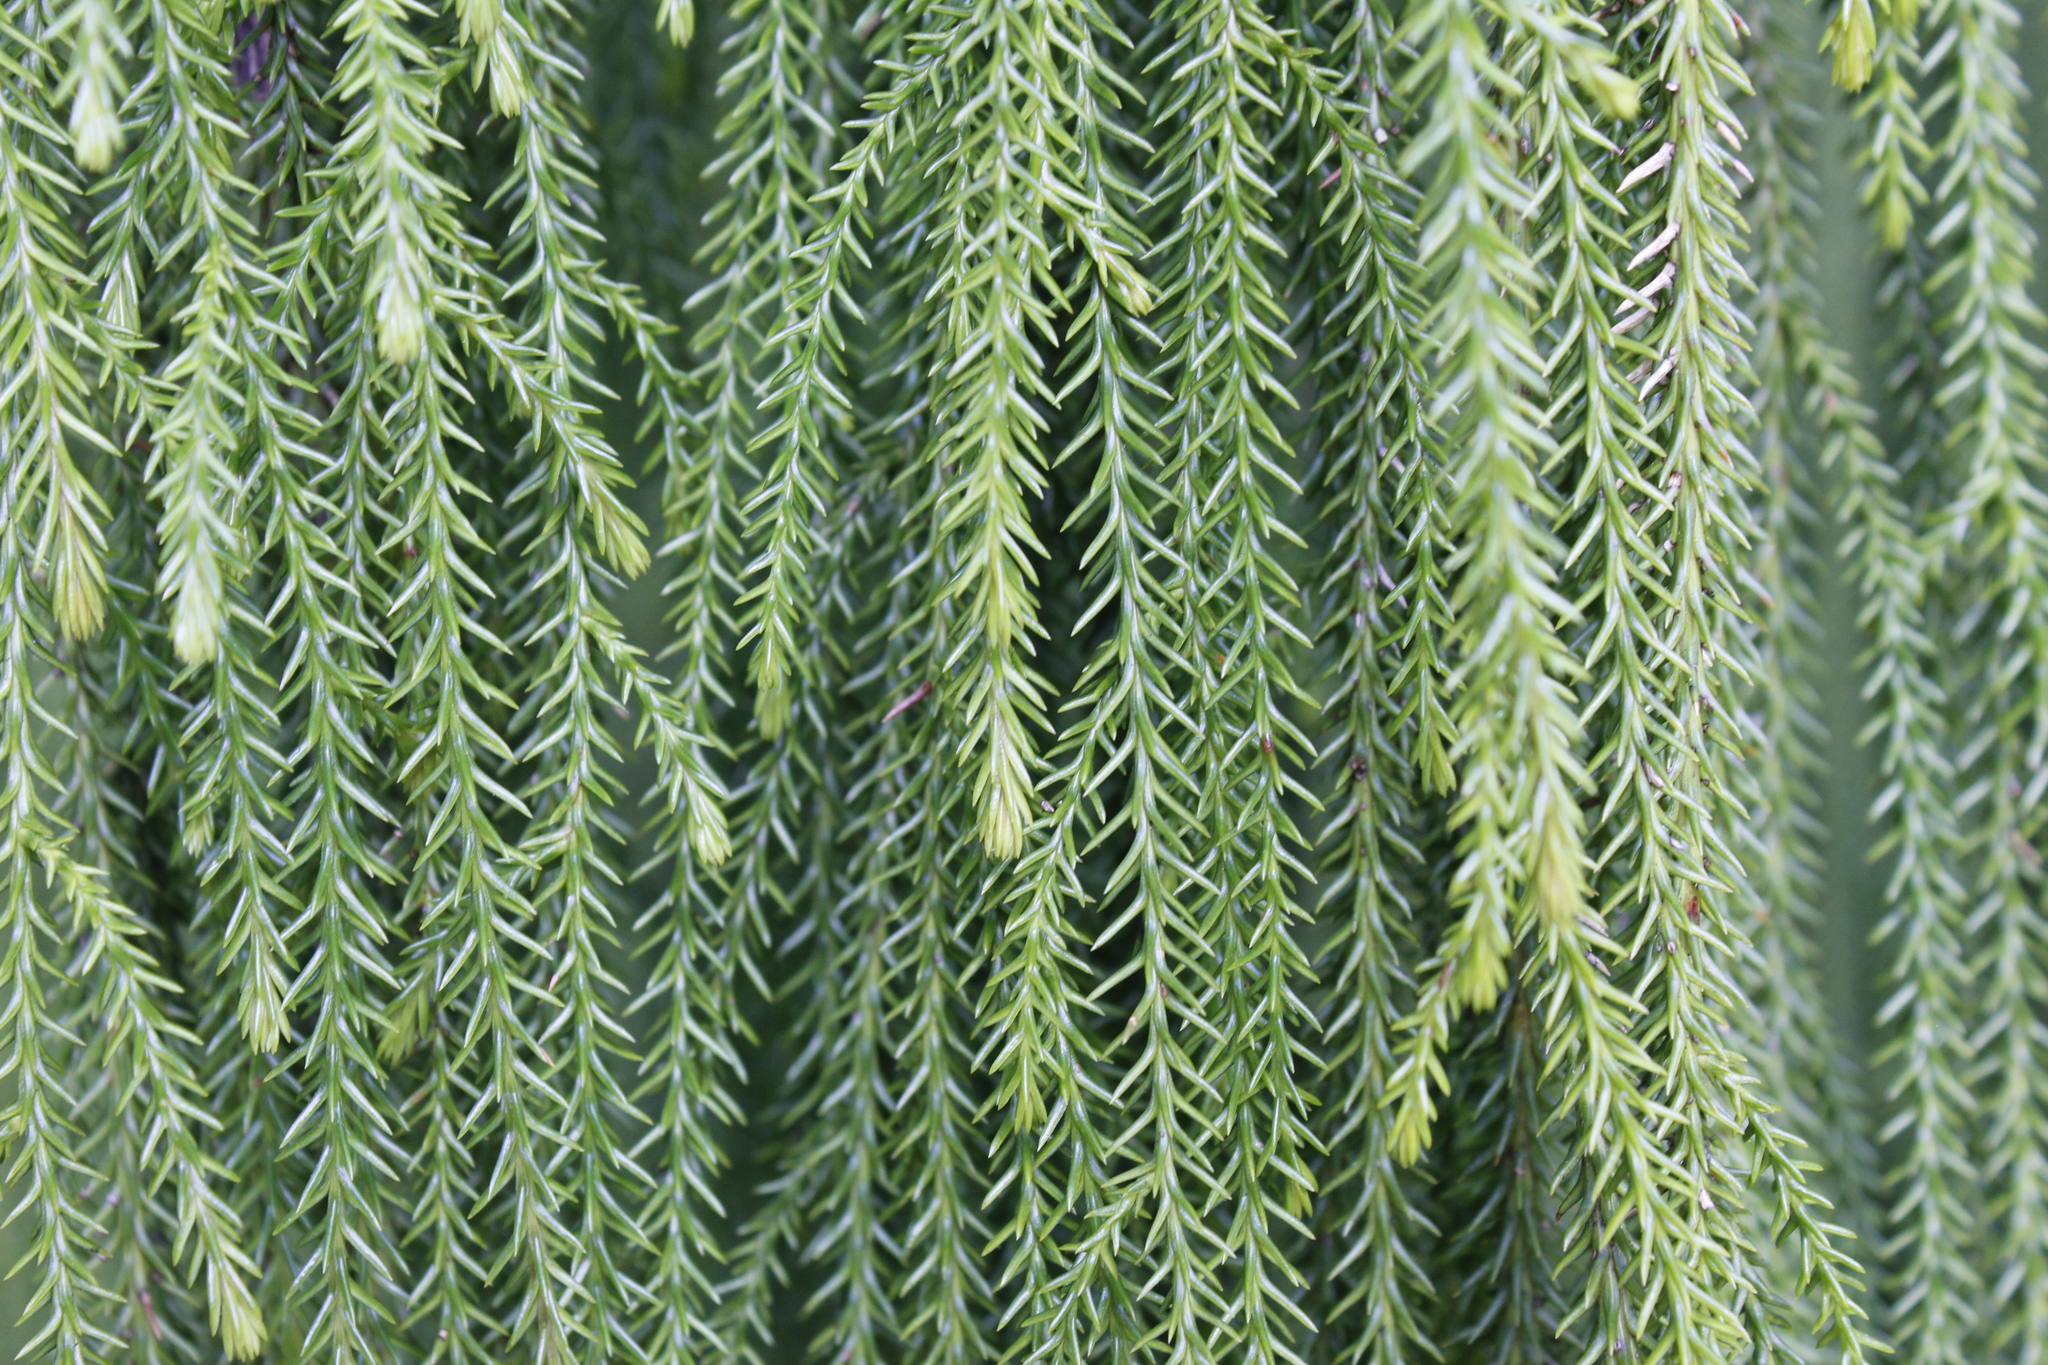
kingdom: Plantae
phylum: Tracheophyta
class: Pinopsida
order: Pinales
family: Podocarpaceae
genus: Dacrydium
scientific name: Dacrydium cupressinum
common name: Red pine
